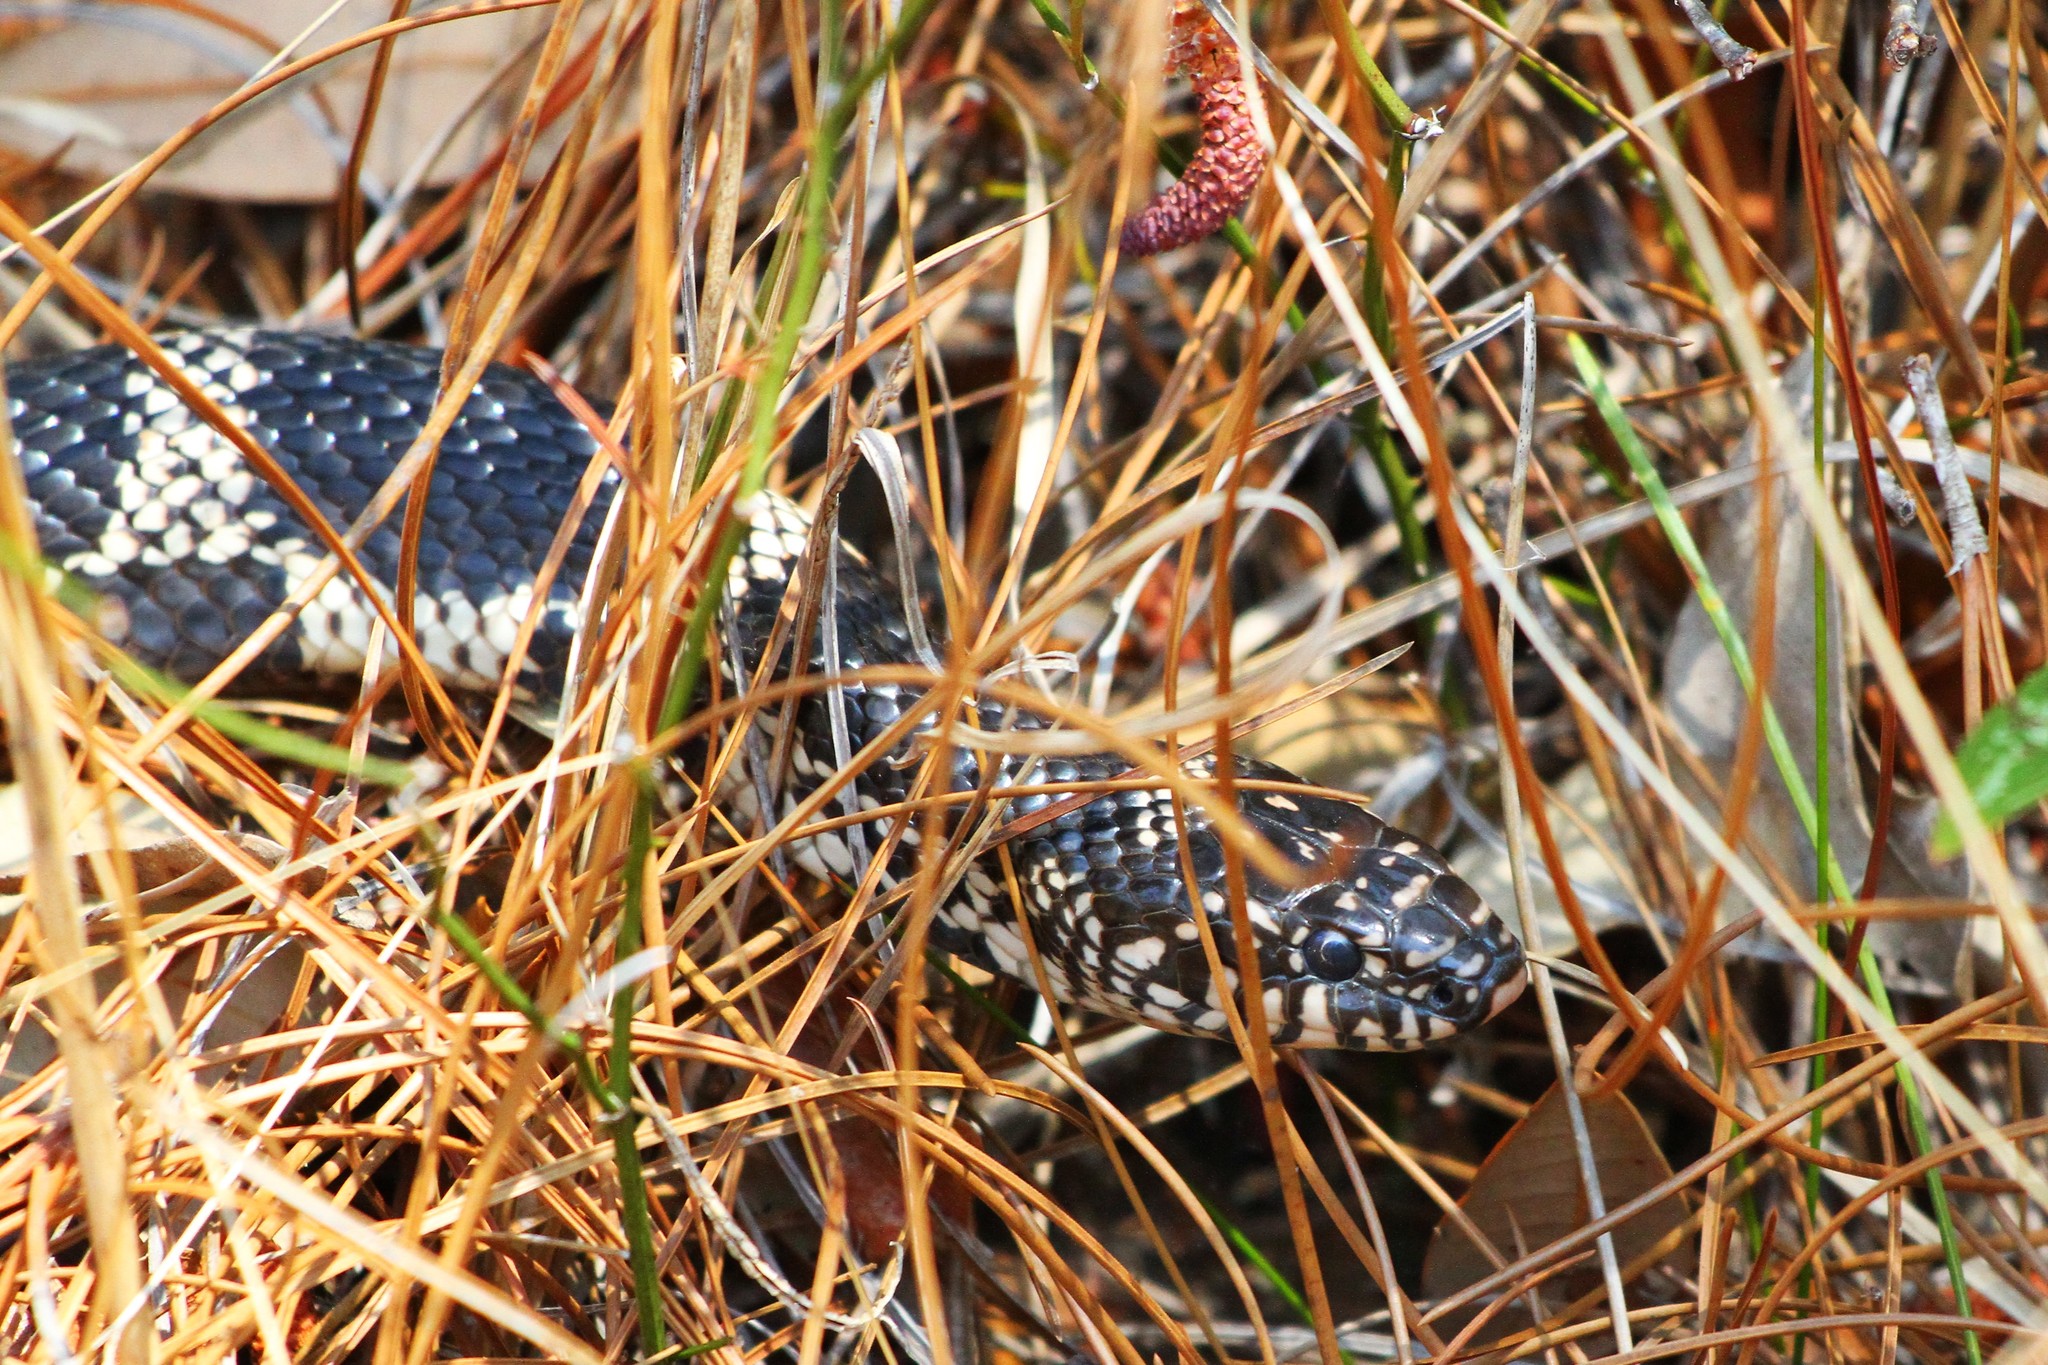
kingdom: Animalia
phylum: Chordata
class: Squamata
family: Colubridae
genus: Lampropeltis
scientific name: Lampropeltis getula
